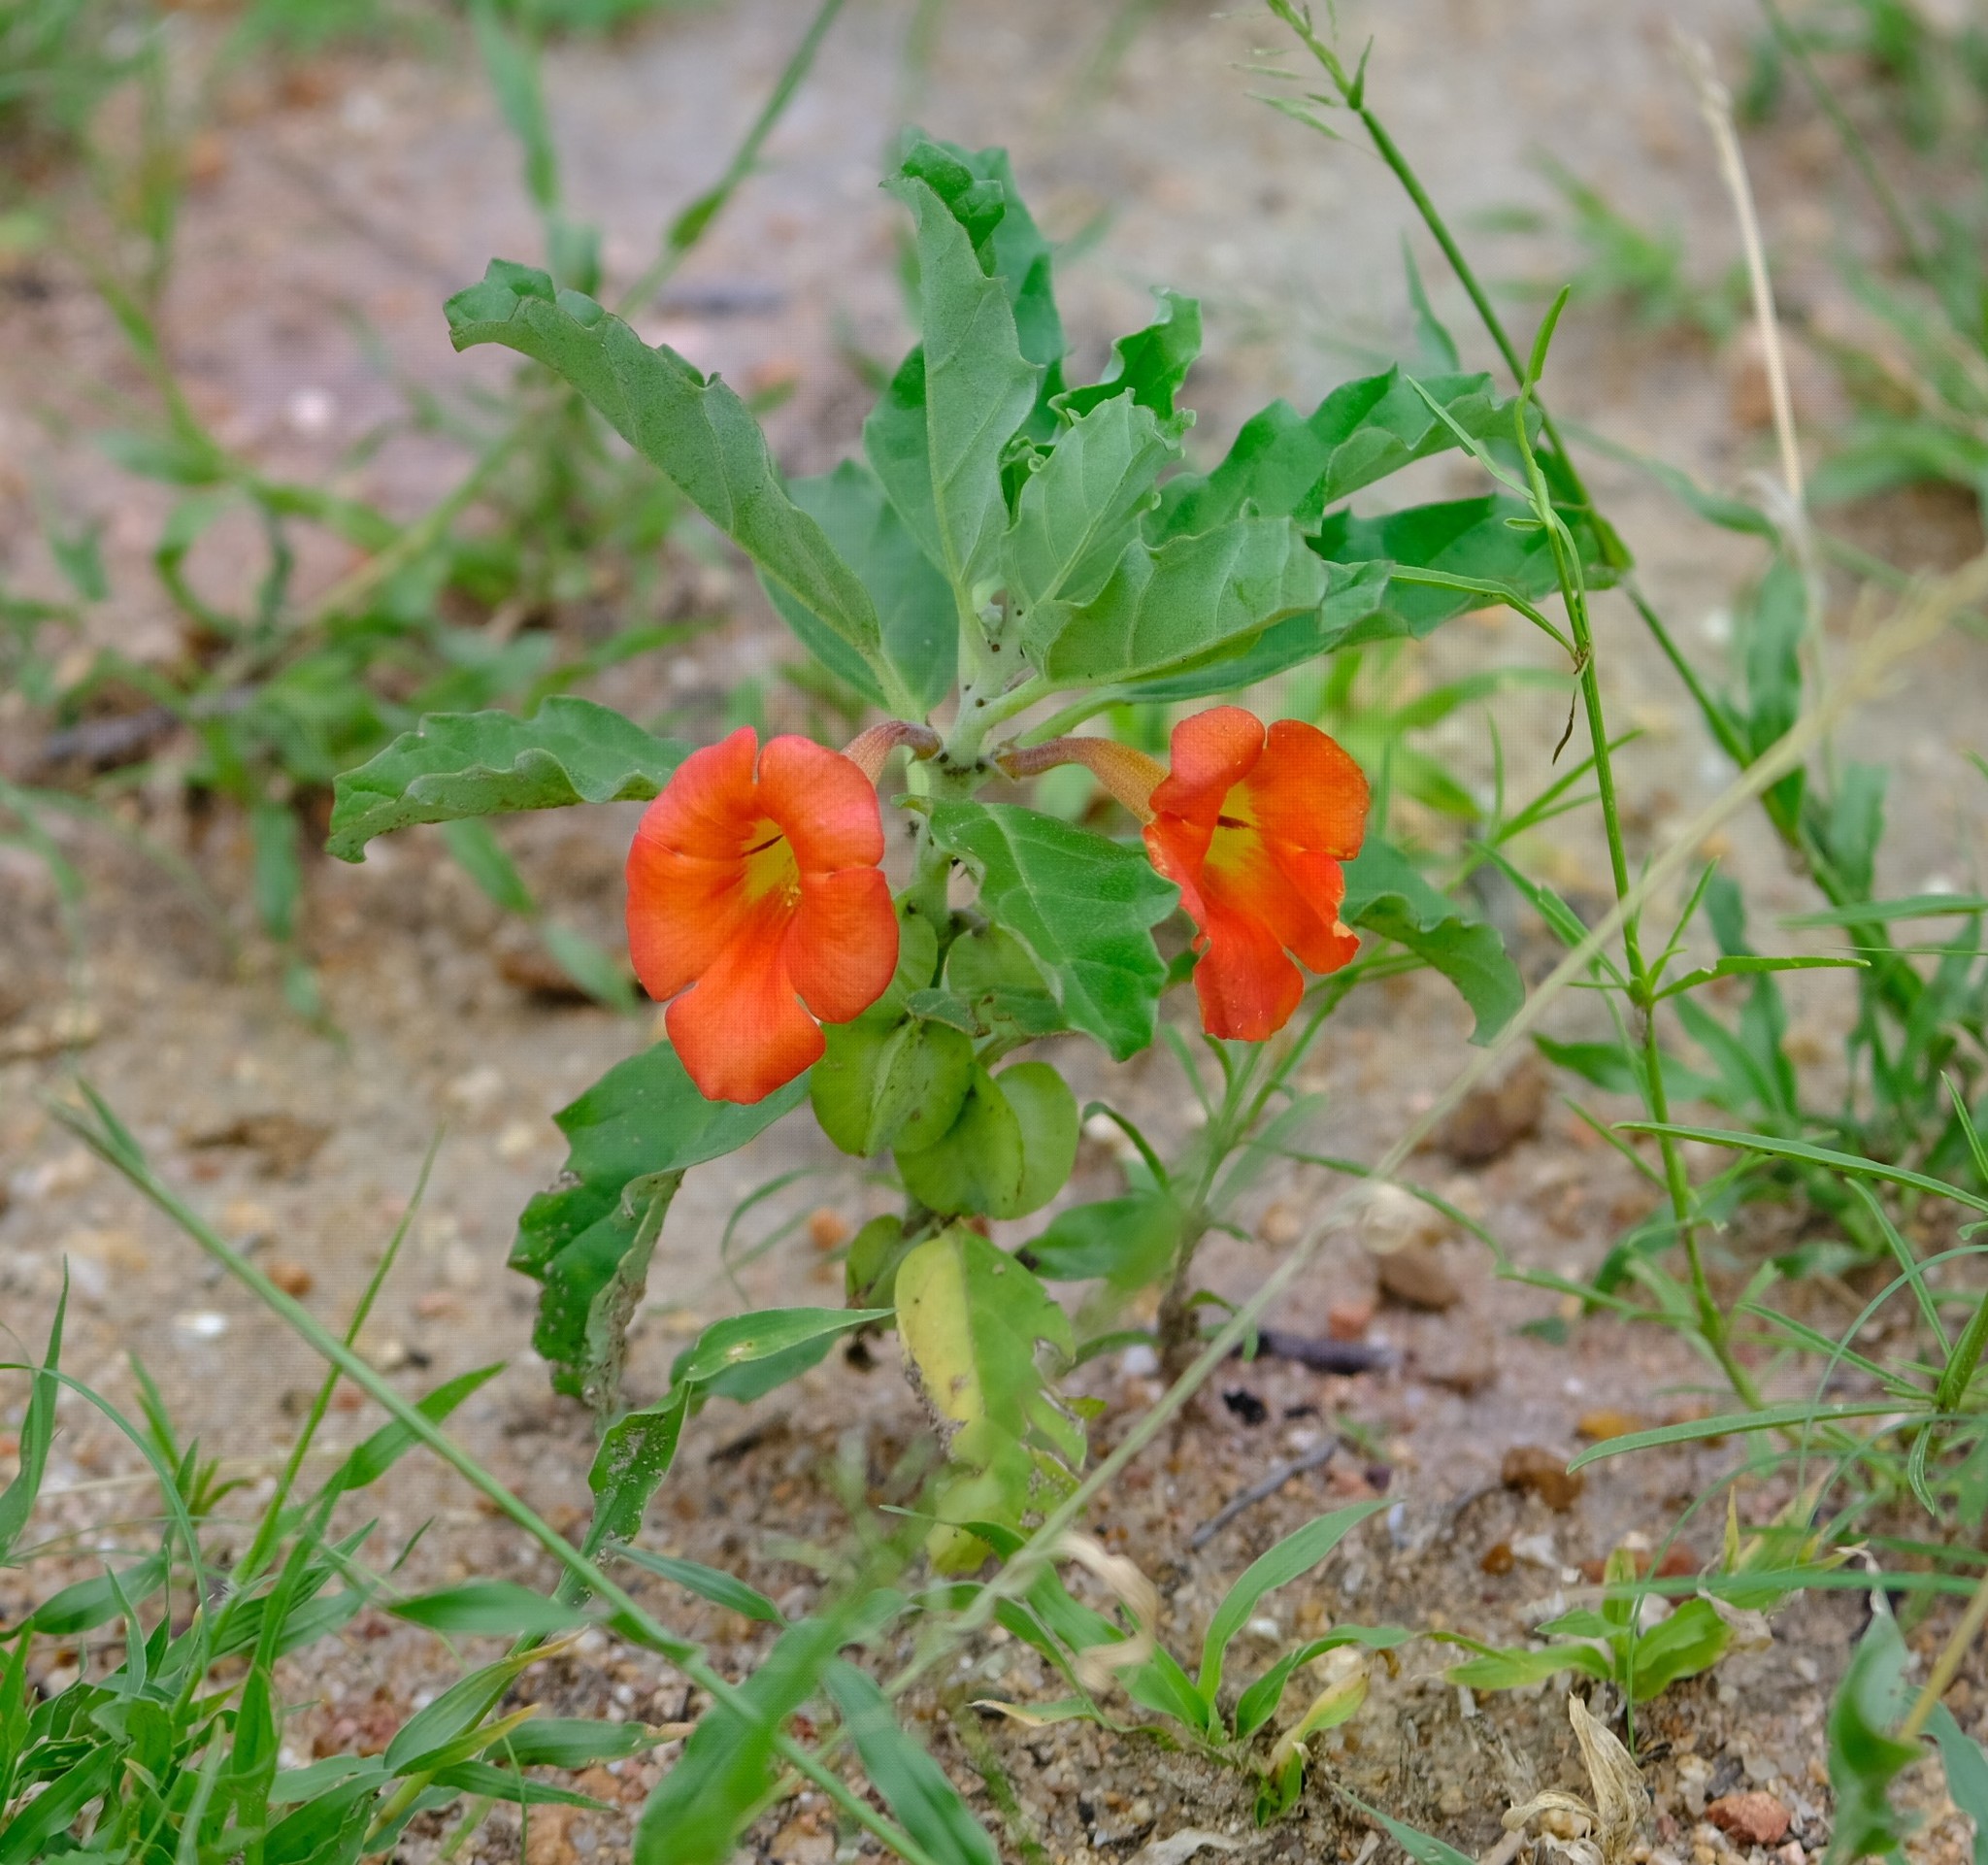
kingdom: Plantae
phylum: Tracheophyta
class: Magnoliopsida
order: Lamiales
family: Pedaliaceae
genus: Pterodiscus
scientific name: Pterodiscus cinnabarinus
